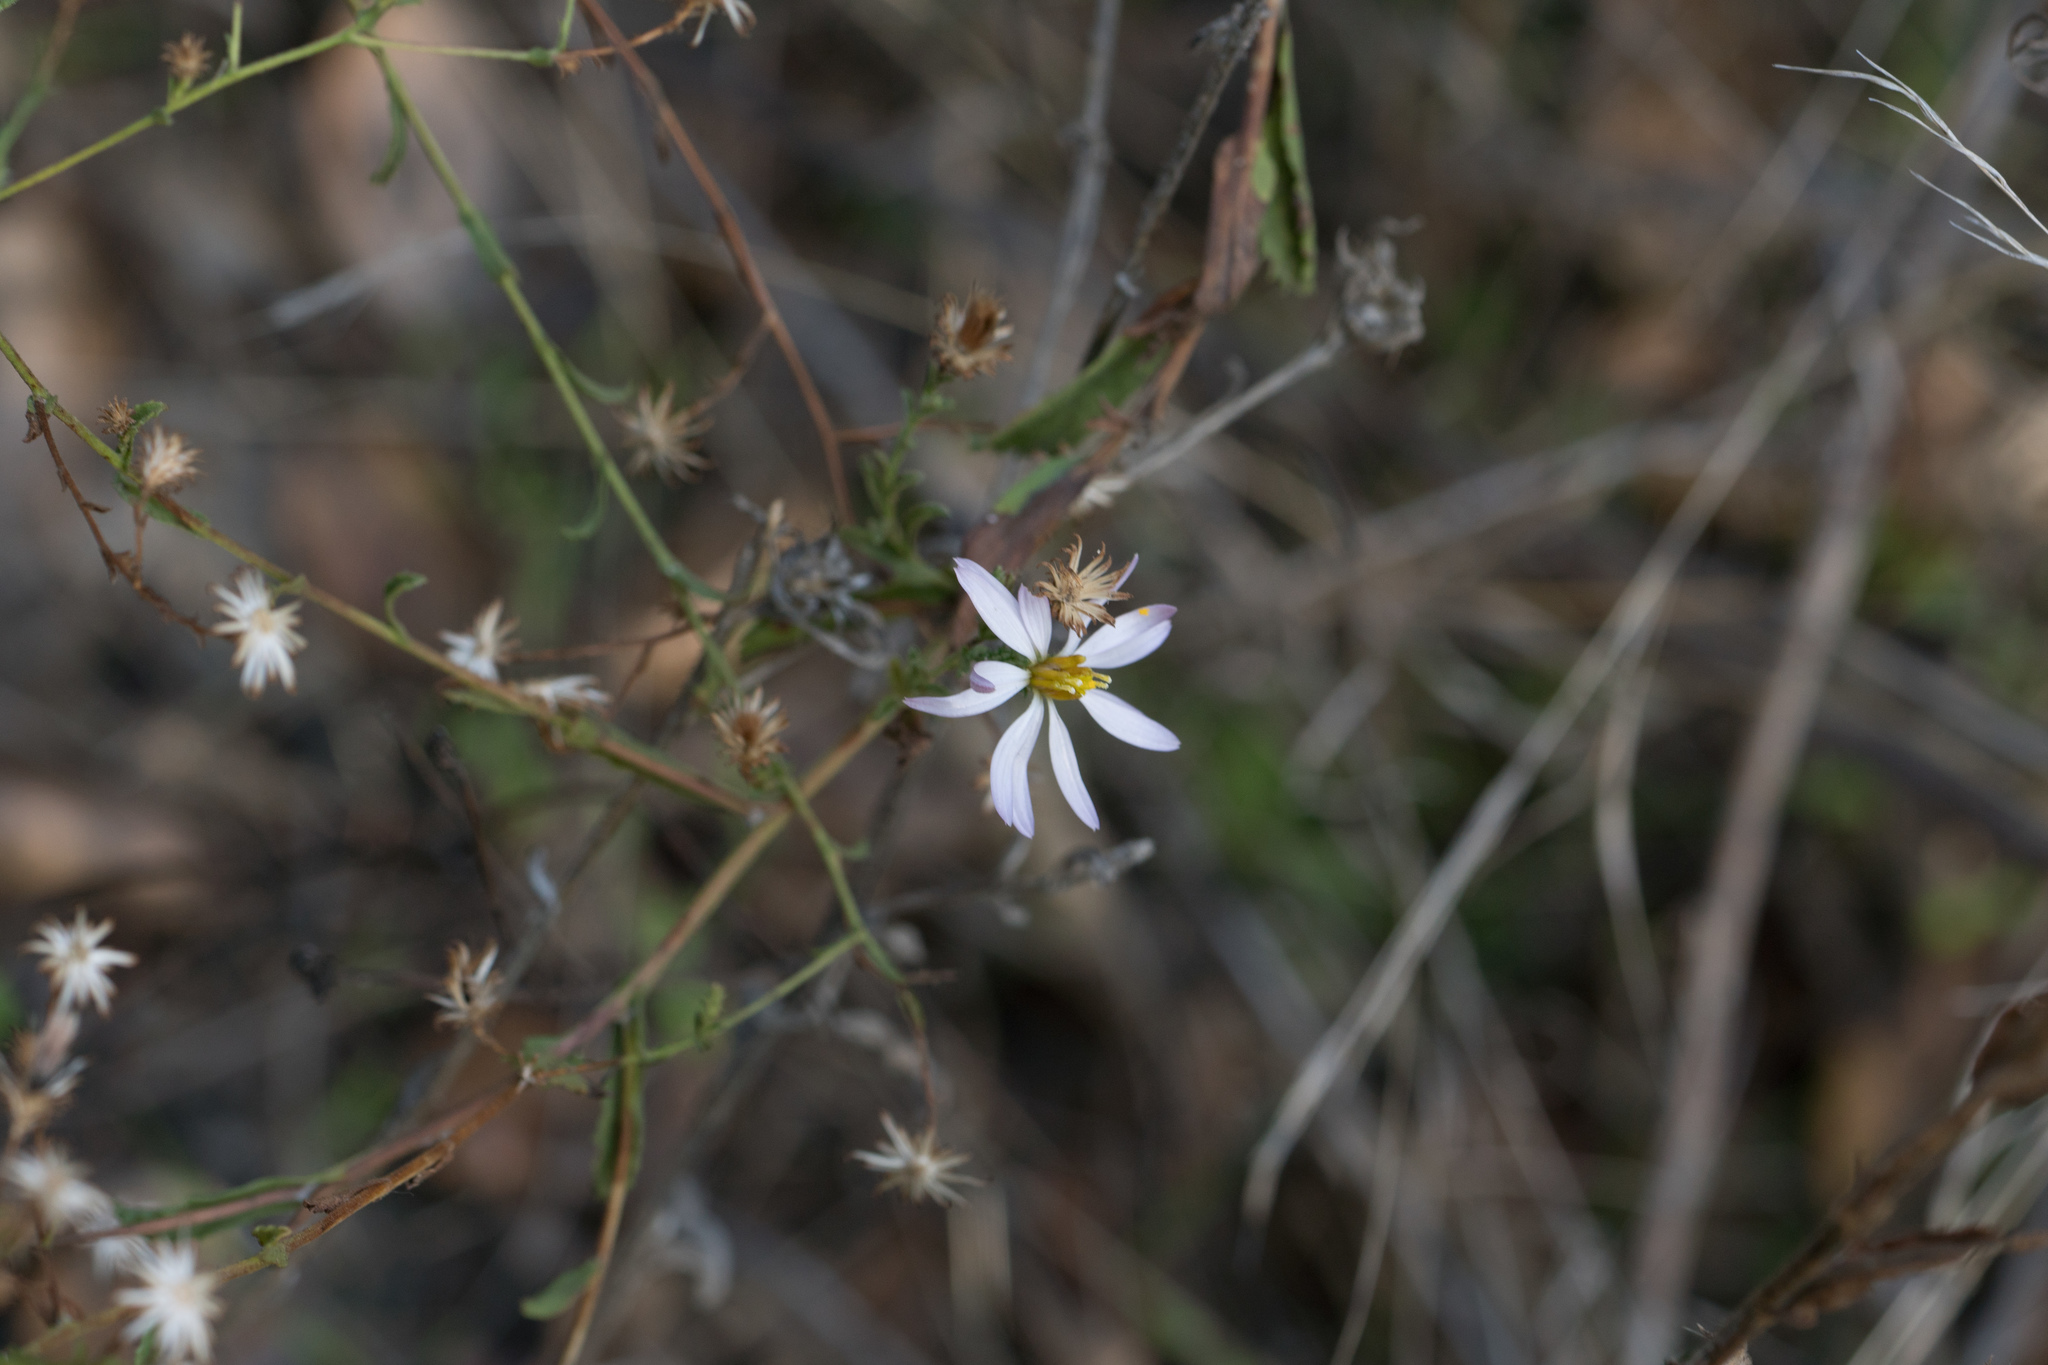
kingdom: Plantae
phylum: Tracheophyta
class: Magnoliopsida
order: Asterales
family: Asteraceae
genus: Corethrogyne
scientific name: Corethrogyne filaginifolia
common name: Sand-aster
